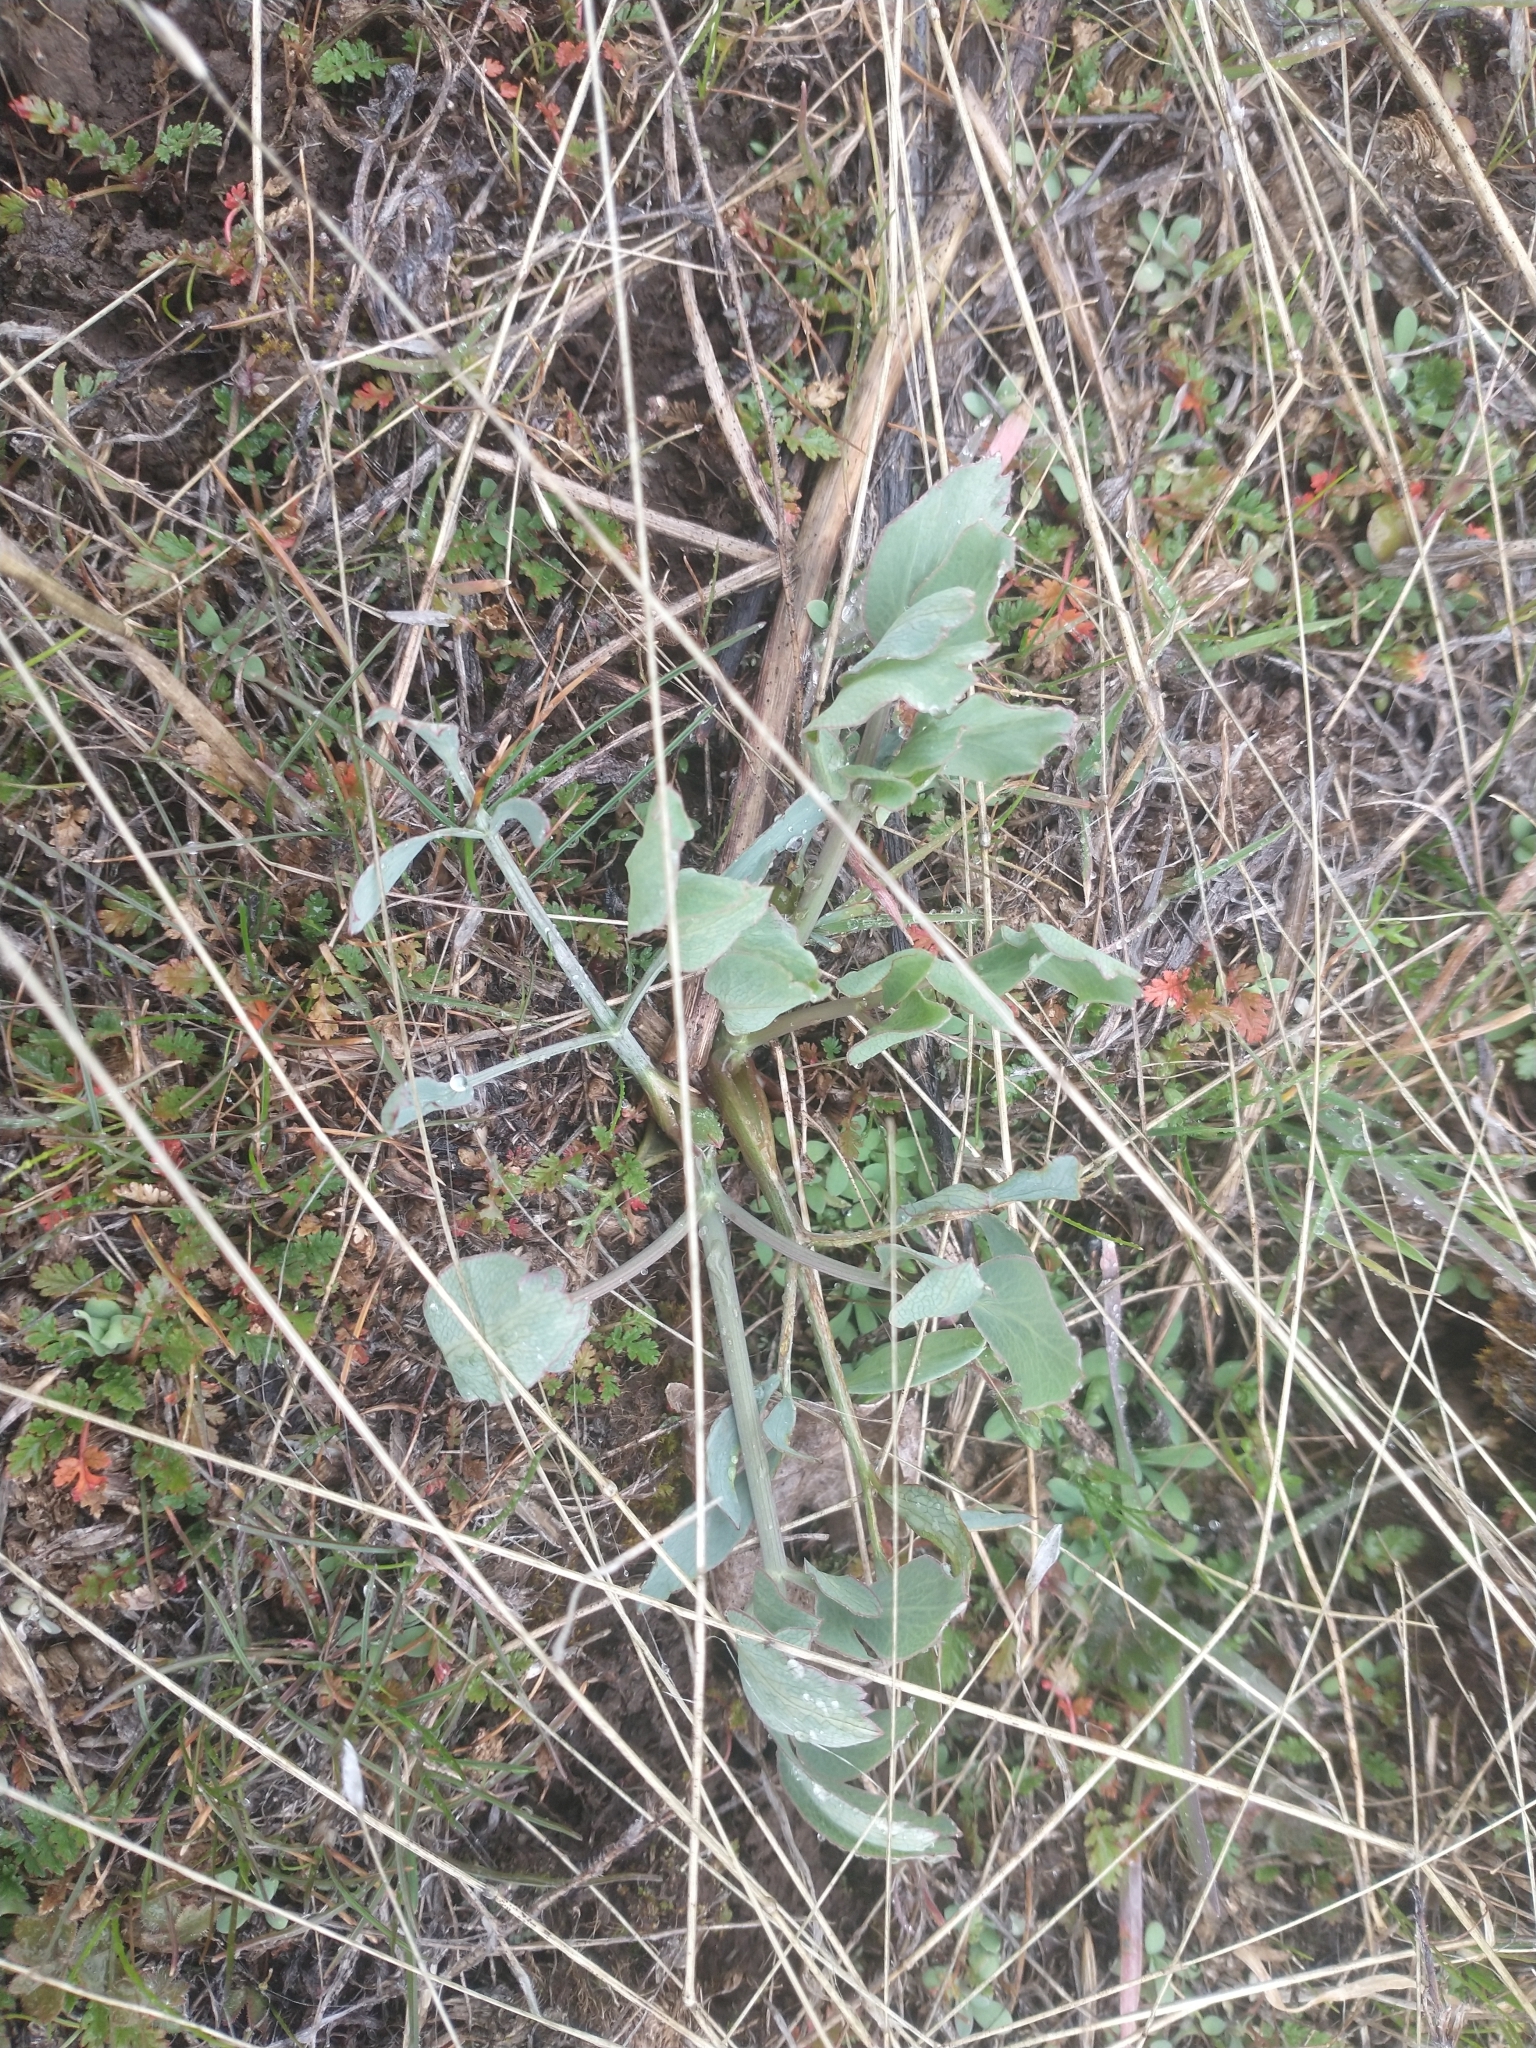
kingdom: Plantae
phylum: Tracheophyta
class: Magnoliopsida
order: Apiales
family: Apiaceae
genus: Lomatium
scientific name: Lomatium nudicaule
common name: Pestle lomatium
